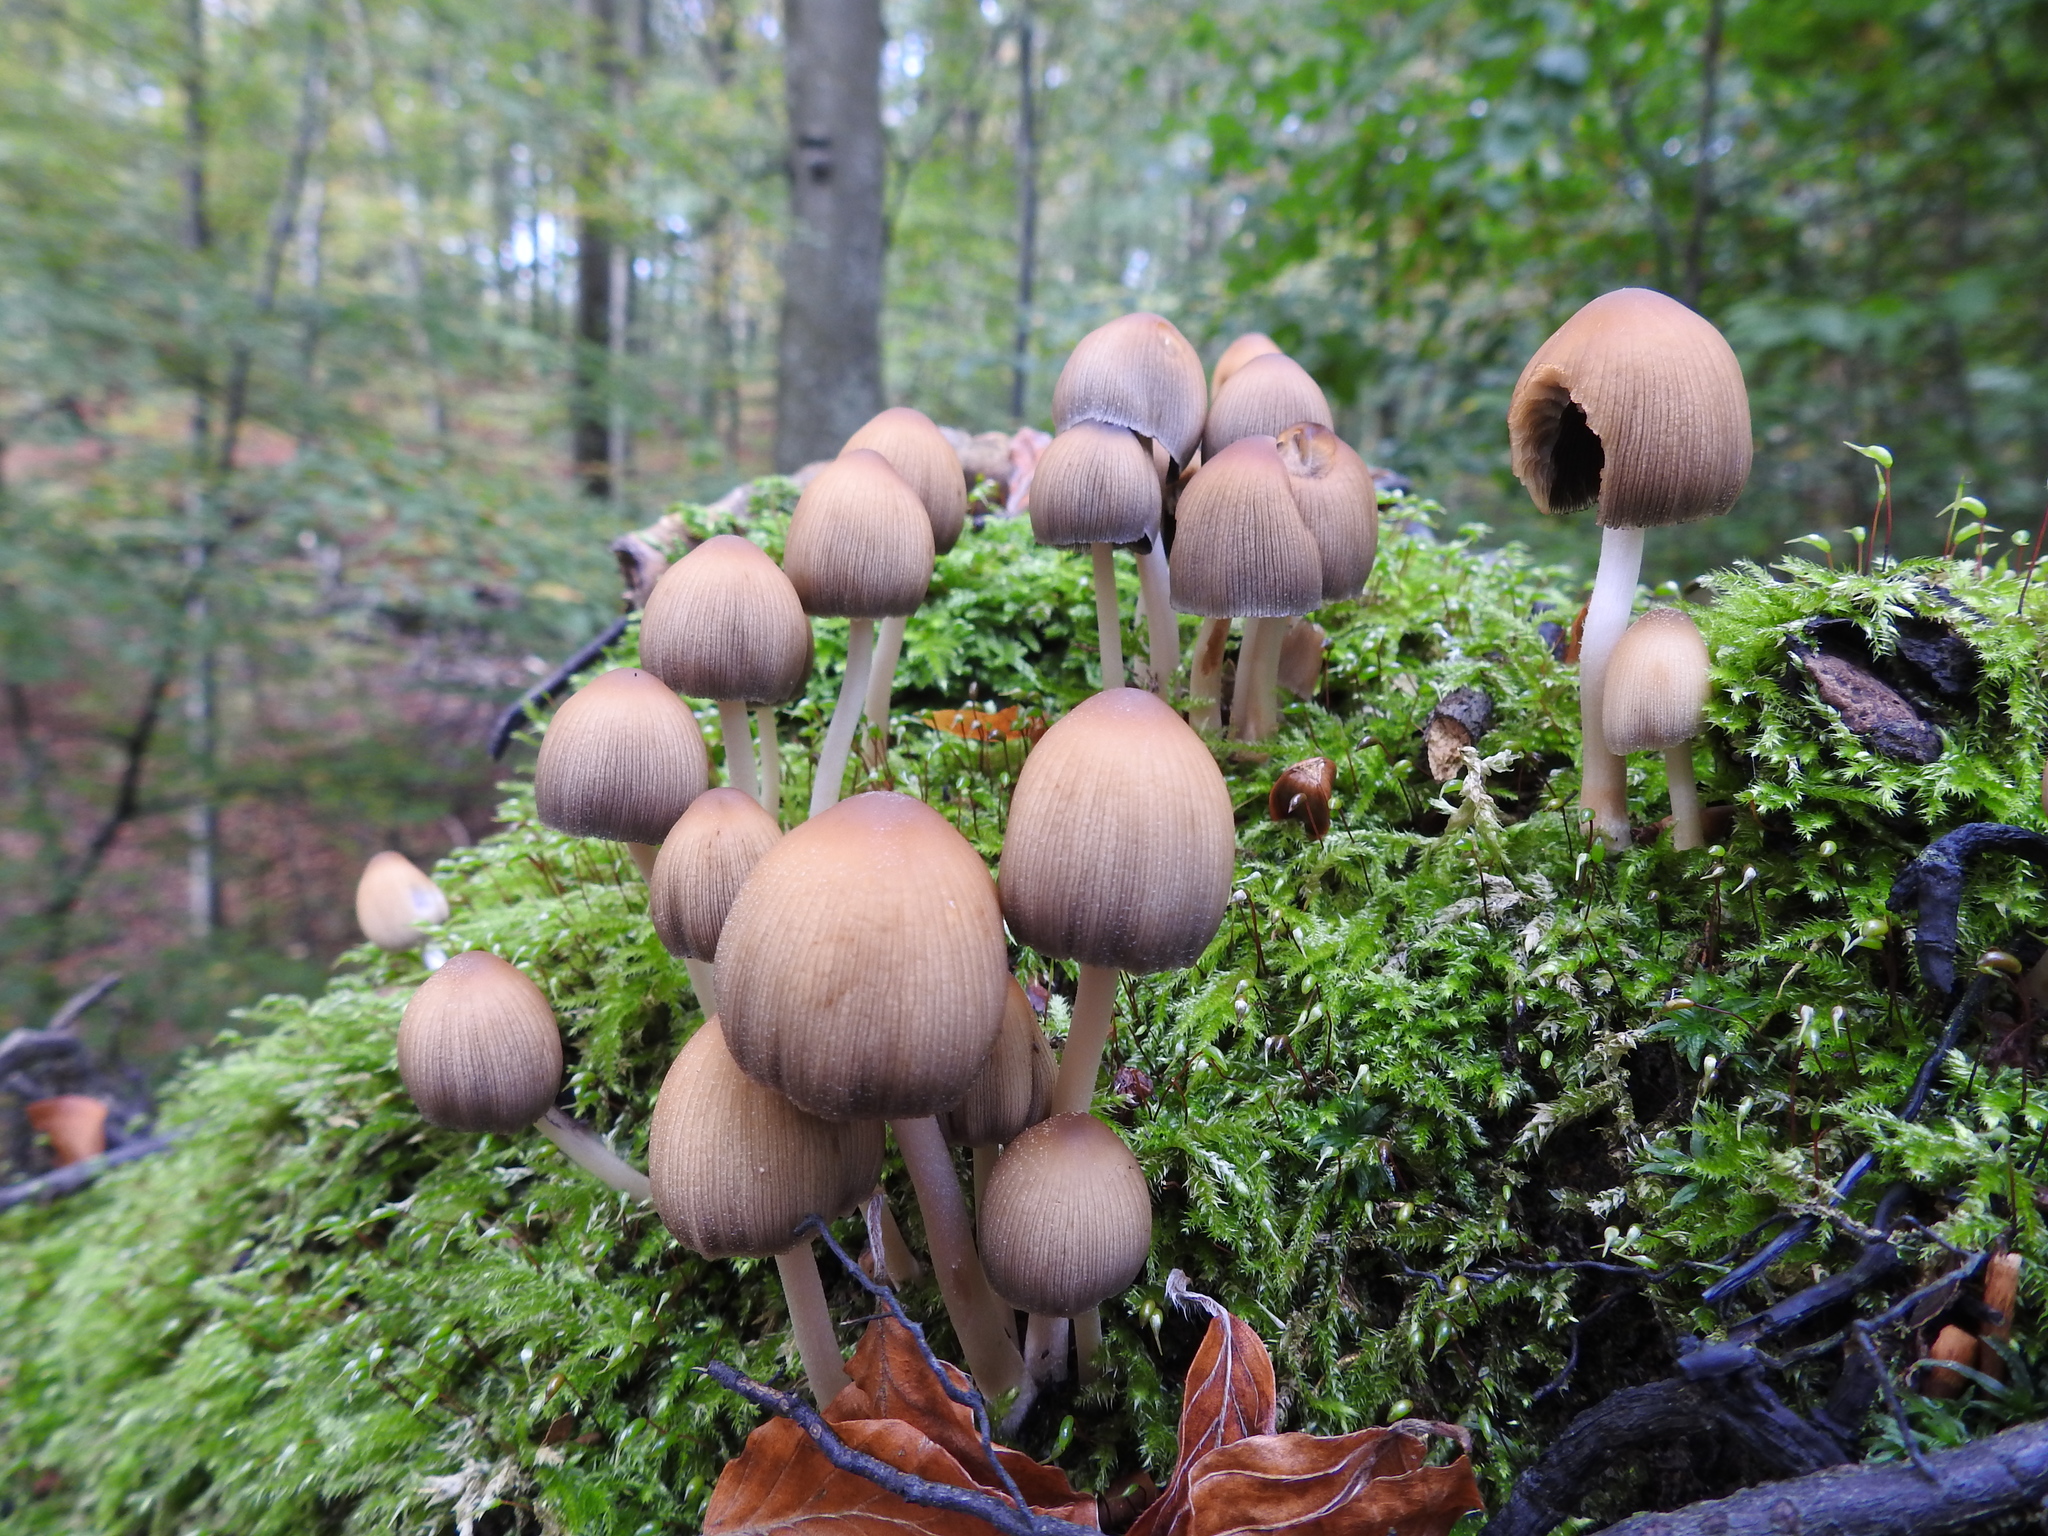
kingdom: Fungi
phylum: Basidiomycota
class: Agaricomycetes
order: Agaricales
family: Psathyrellaceae
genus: Coprinellus
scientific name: Coprinellus micaceus
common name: Glistening ink-cap
